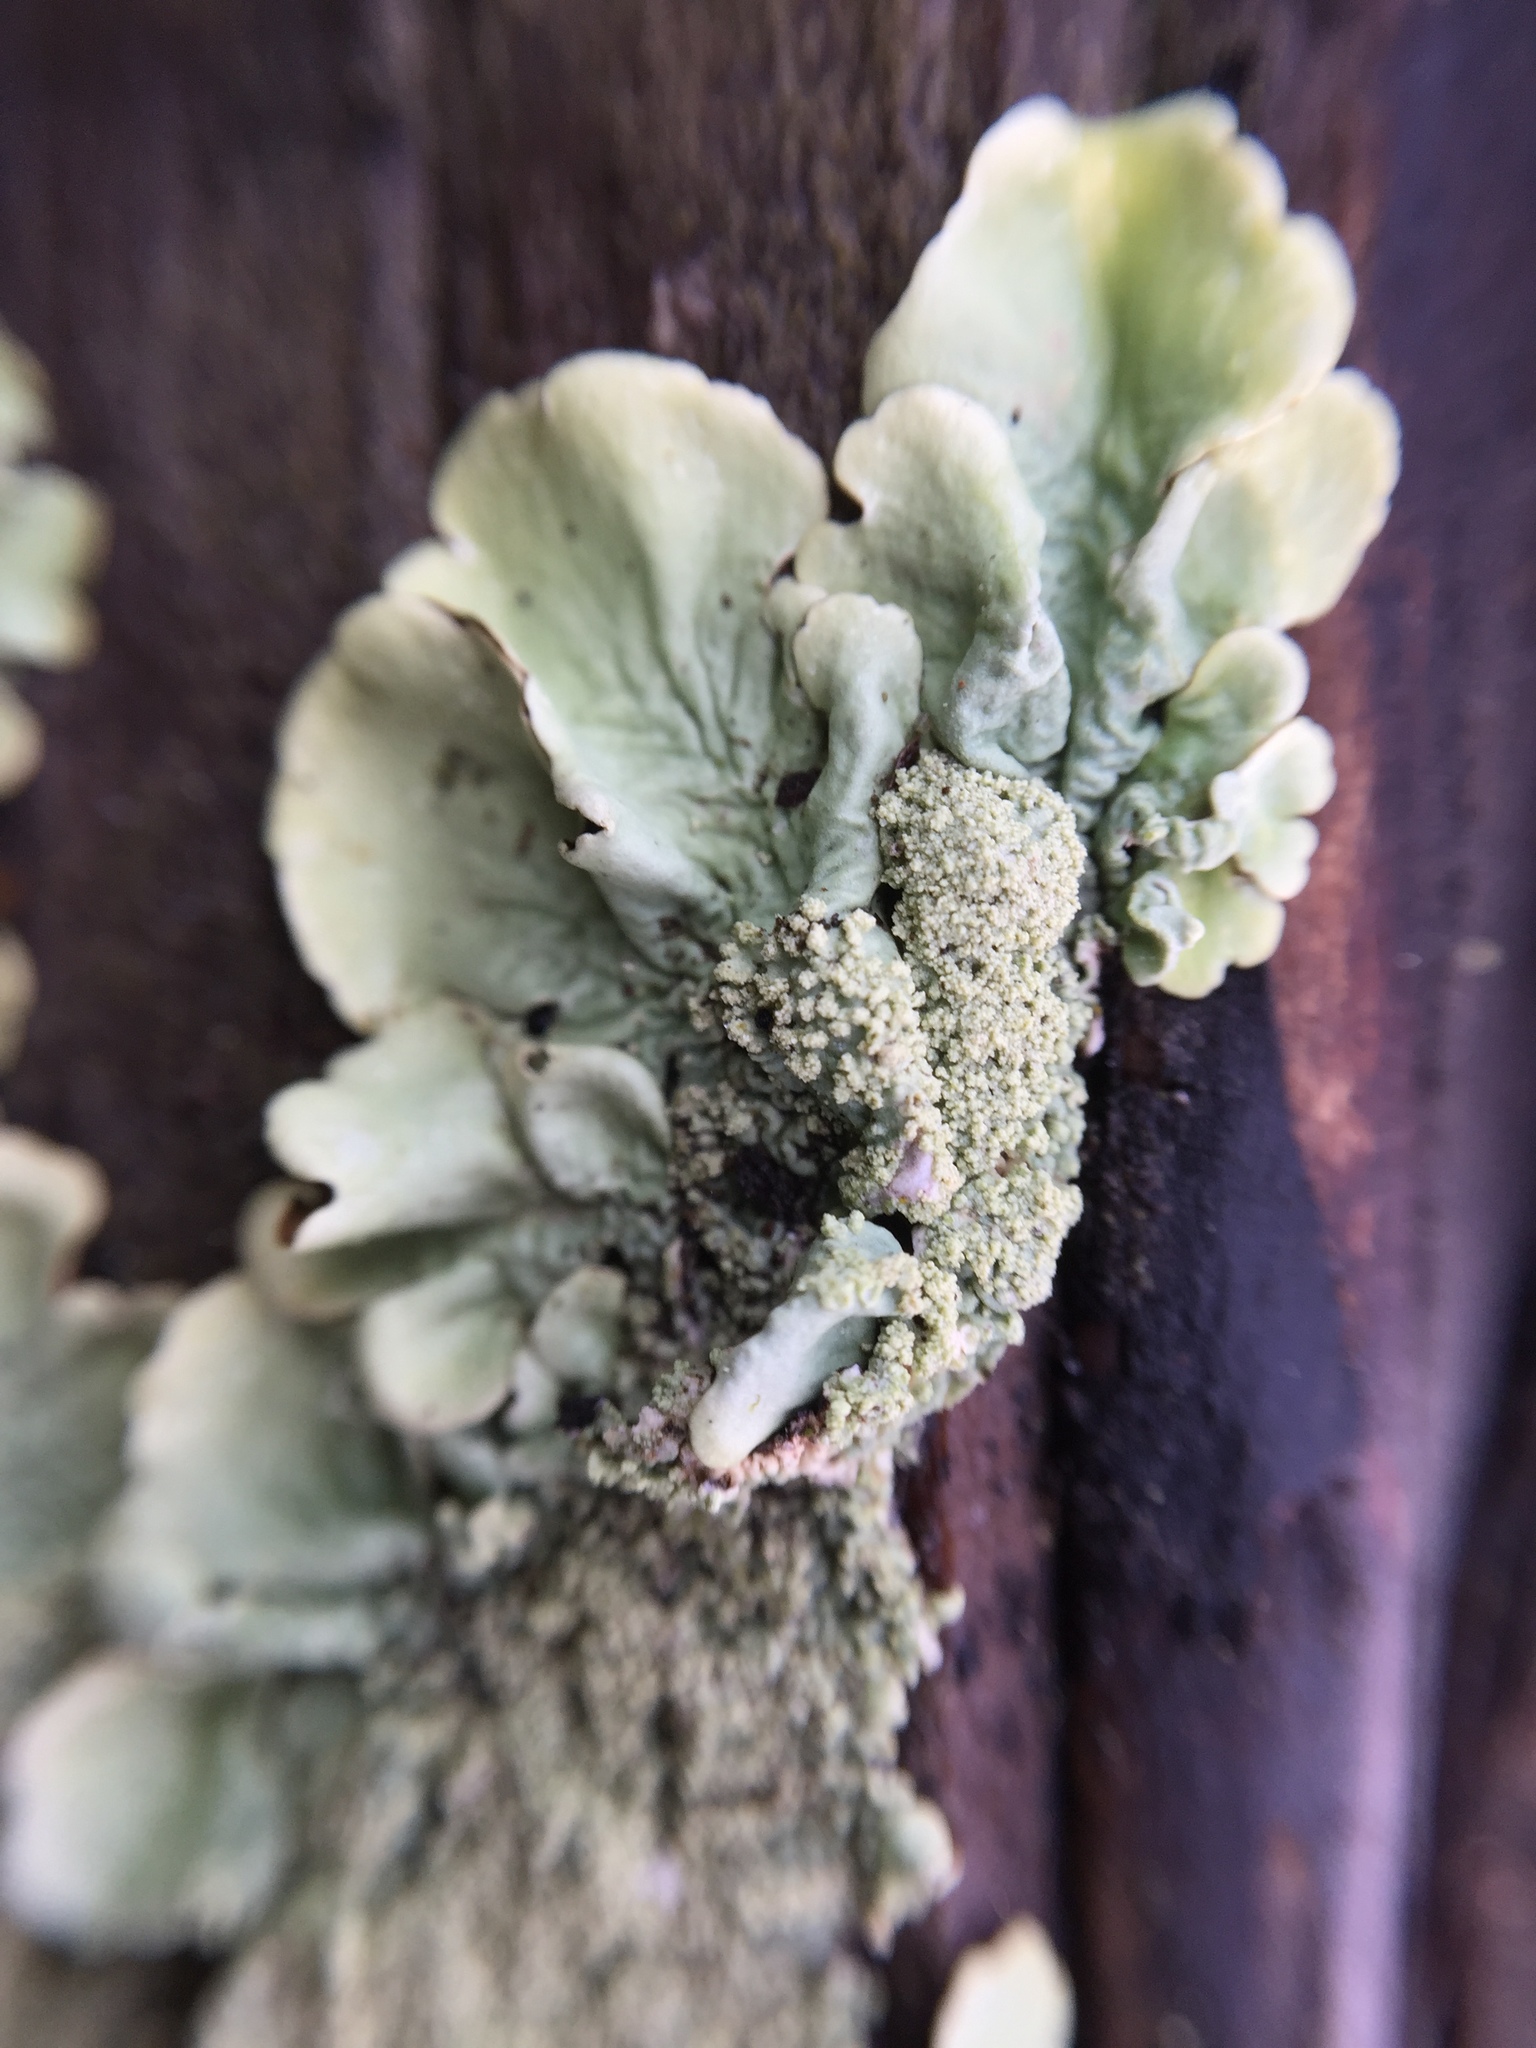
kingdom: Fungi
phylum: Ascomycota
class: Lecanoromycetes
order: Lecanorales
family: Parmeliaceae
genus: Flavoparmelia
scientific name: Flavoparmelia caperata
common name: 40-mile per hour lichen
